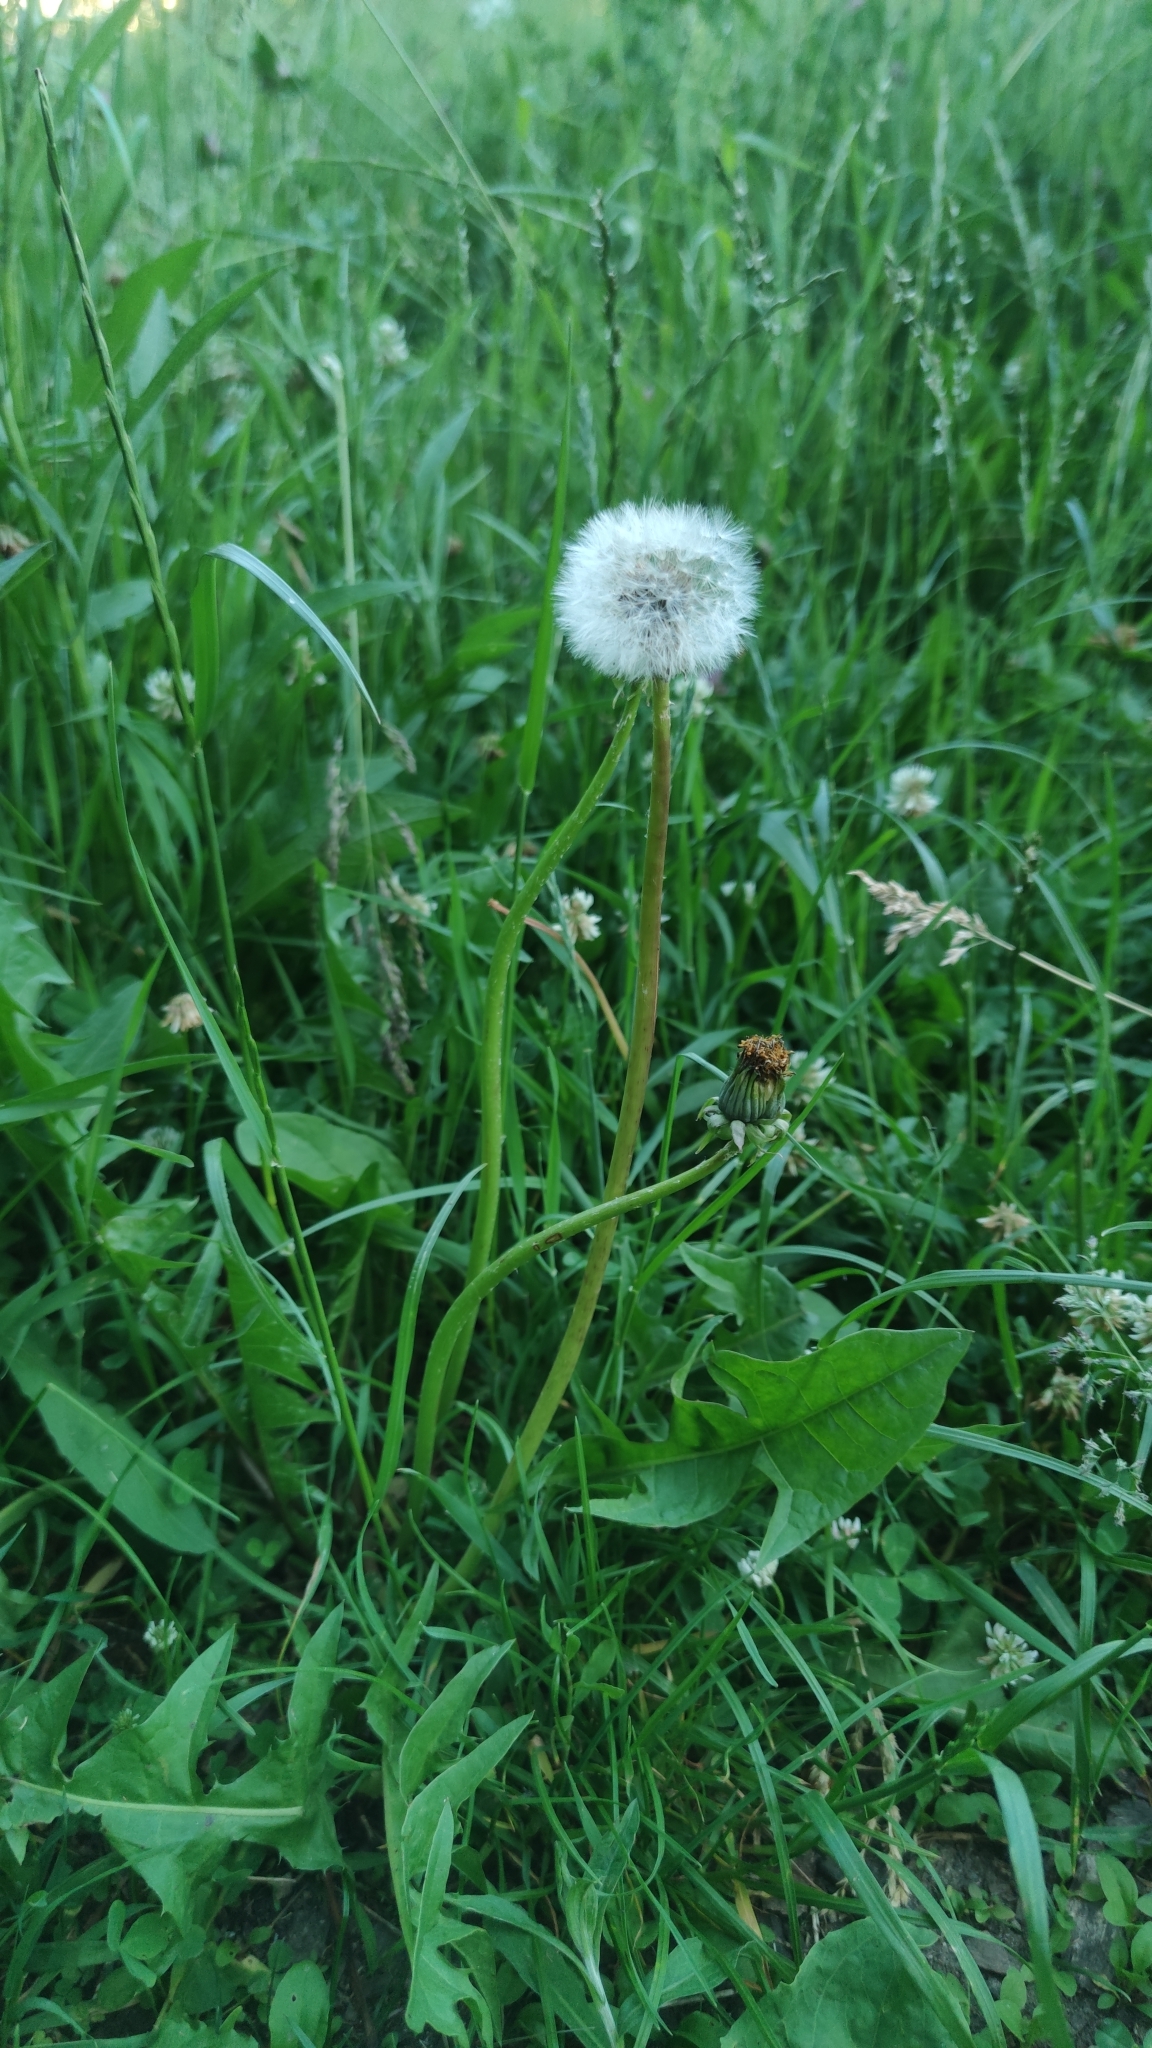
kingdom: Plantae
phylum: Tracheophyta
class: Magnoliopsida
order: Asterales
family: Asteraceae
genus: Taraxacum
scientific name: Taraxacum officinale
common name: Common dandelion
